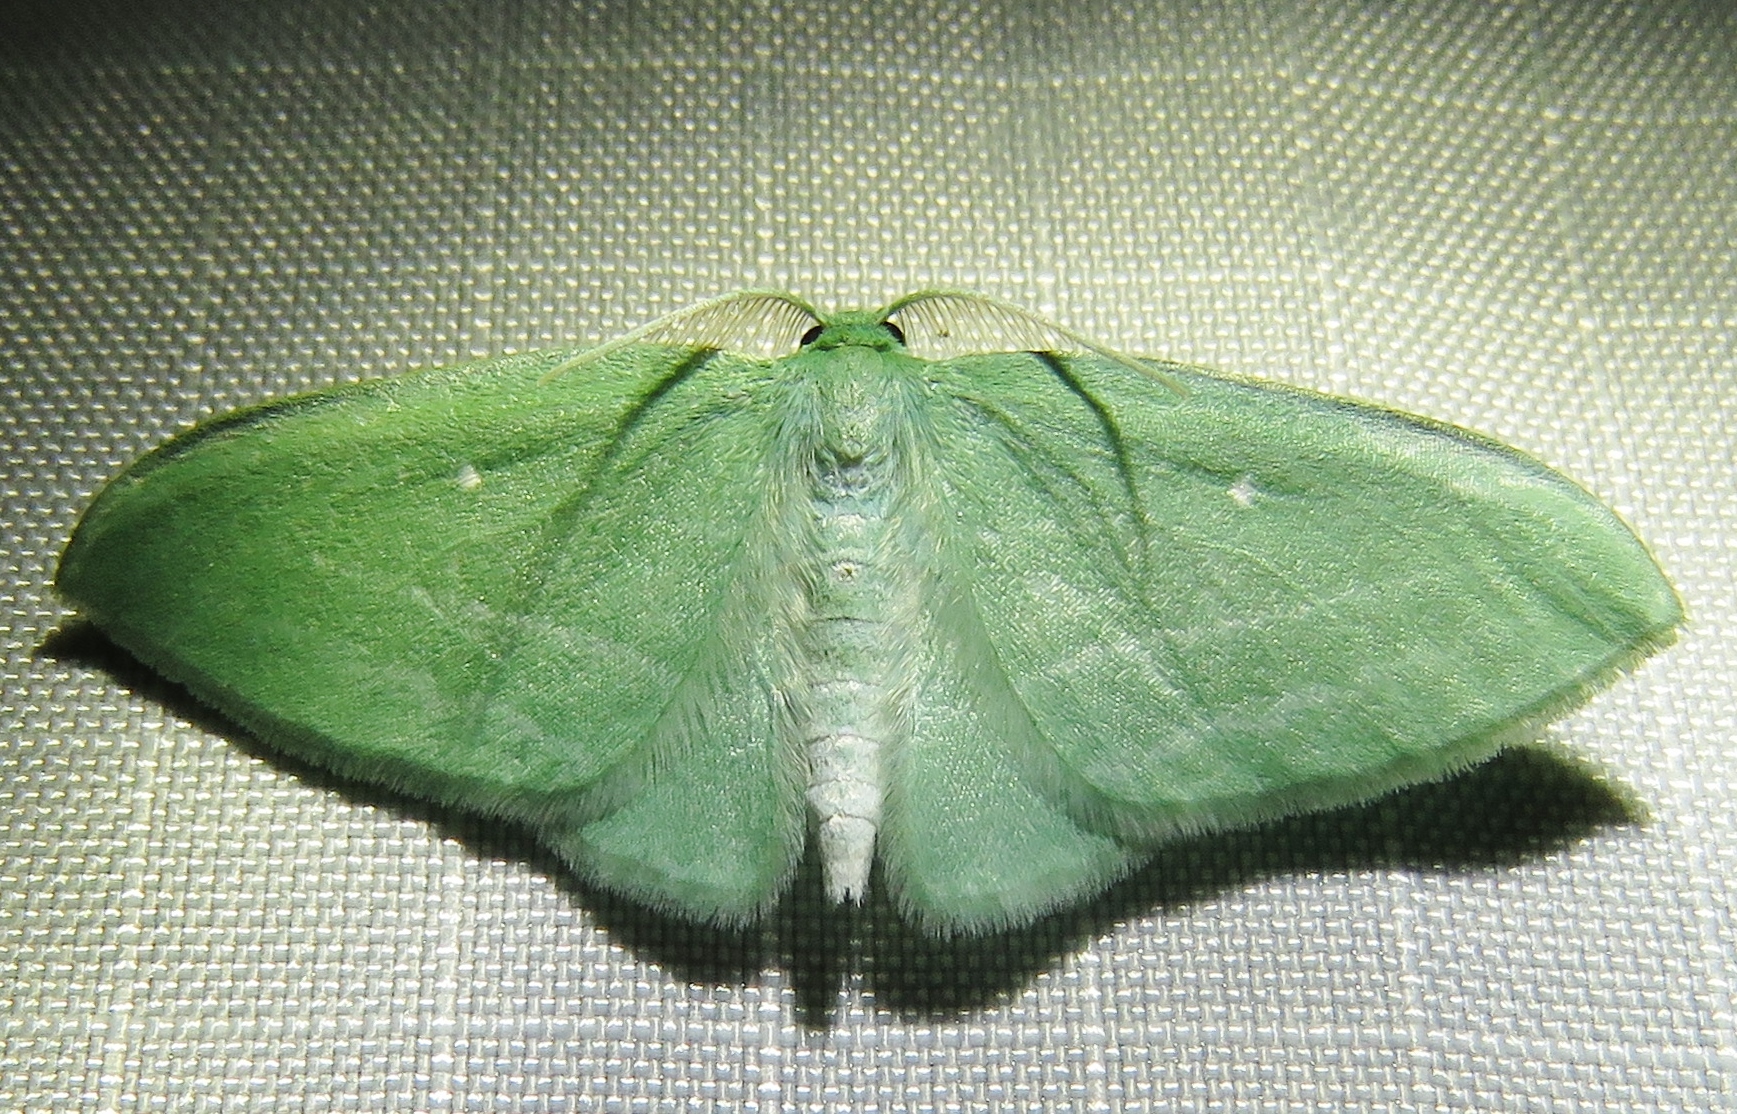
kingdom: Animalia
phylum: Arthropoda
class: Insecta
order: Lepidoptera
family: Geometridae
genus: Dyspteris
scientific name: Dyspteris abortivaria
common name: Bad-wing
